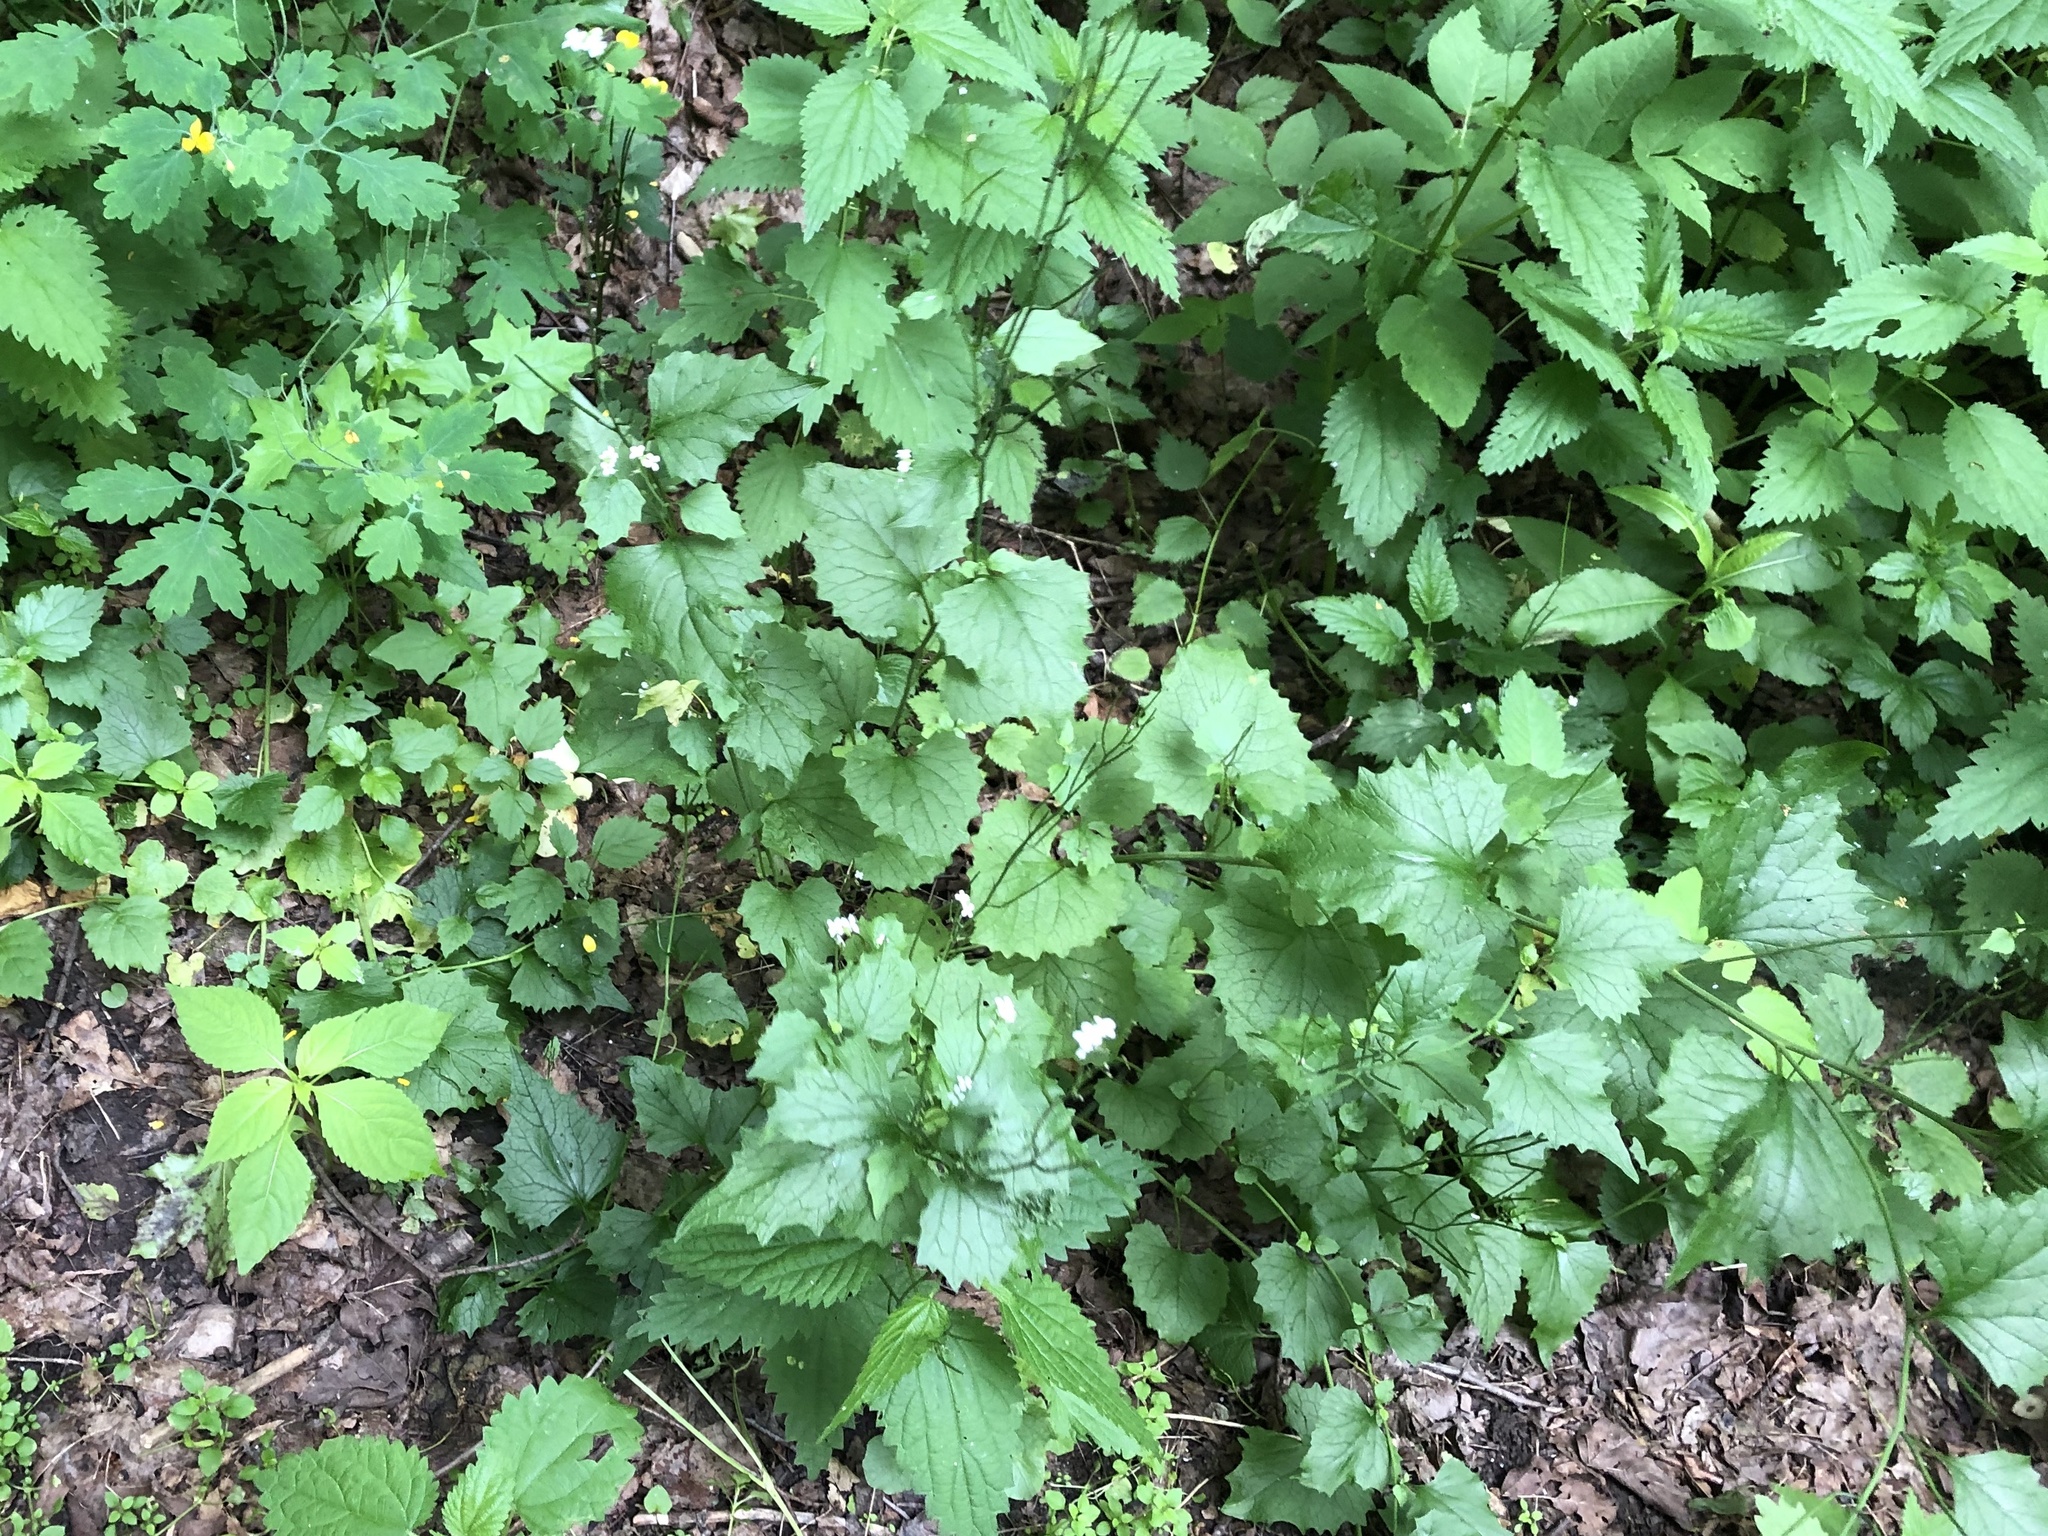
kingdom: Plantae
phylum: Tracheophyta
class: Magnoliopsida
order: Brassicales
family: Brassicaceae
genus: Alliaria
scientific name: Alliaria petiolata
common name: Garlic mustard
